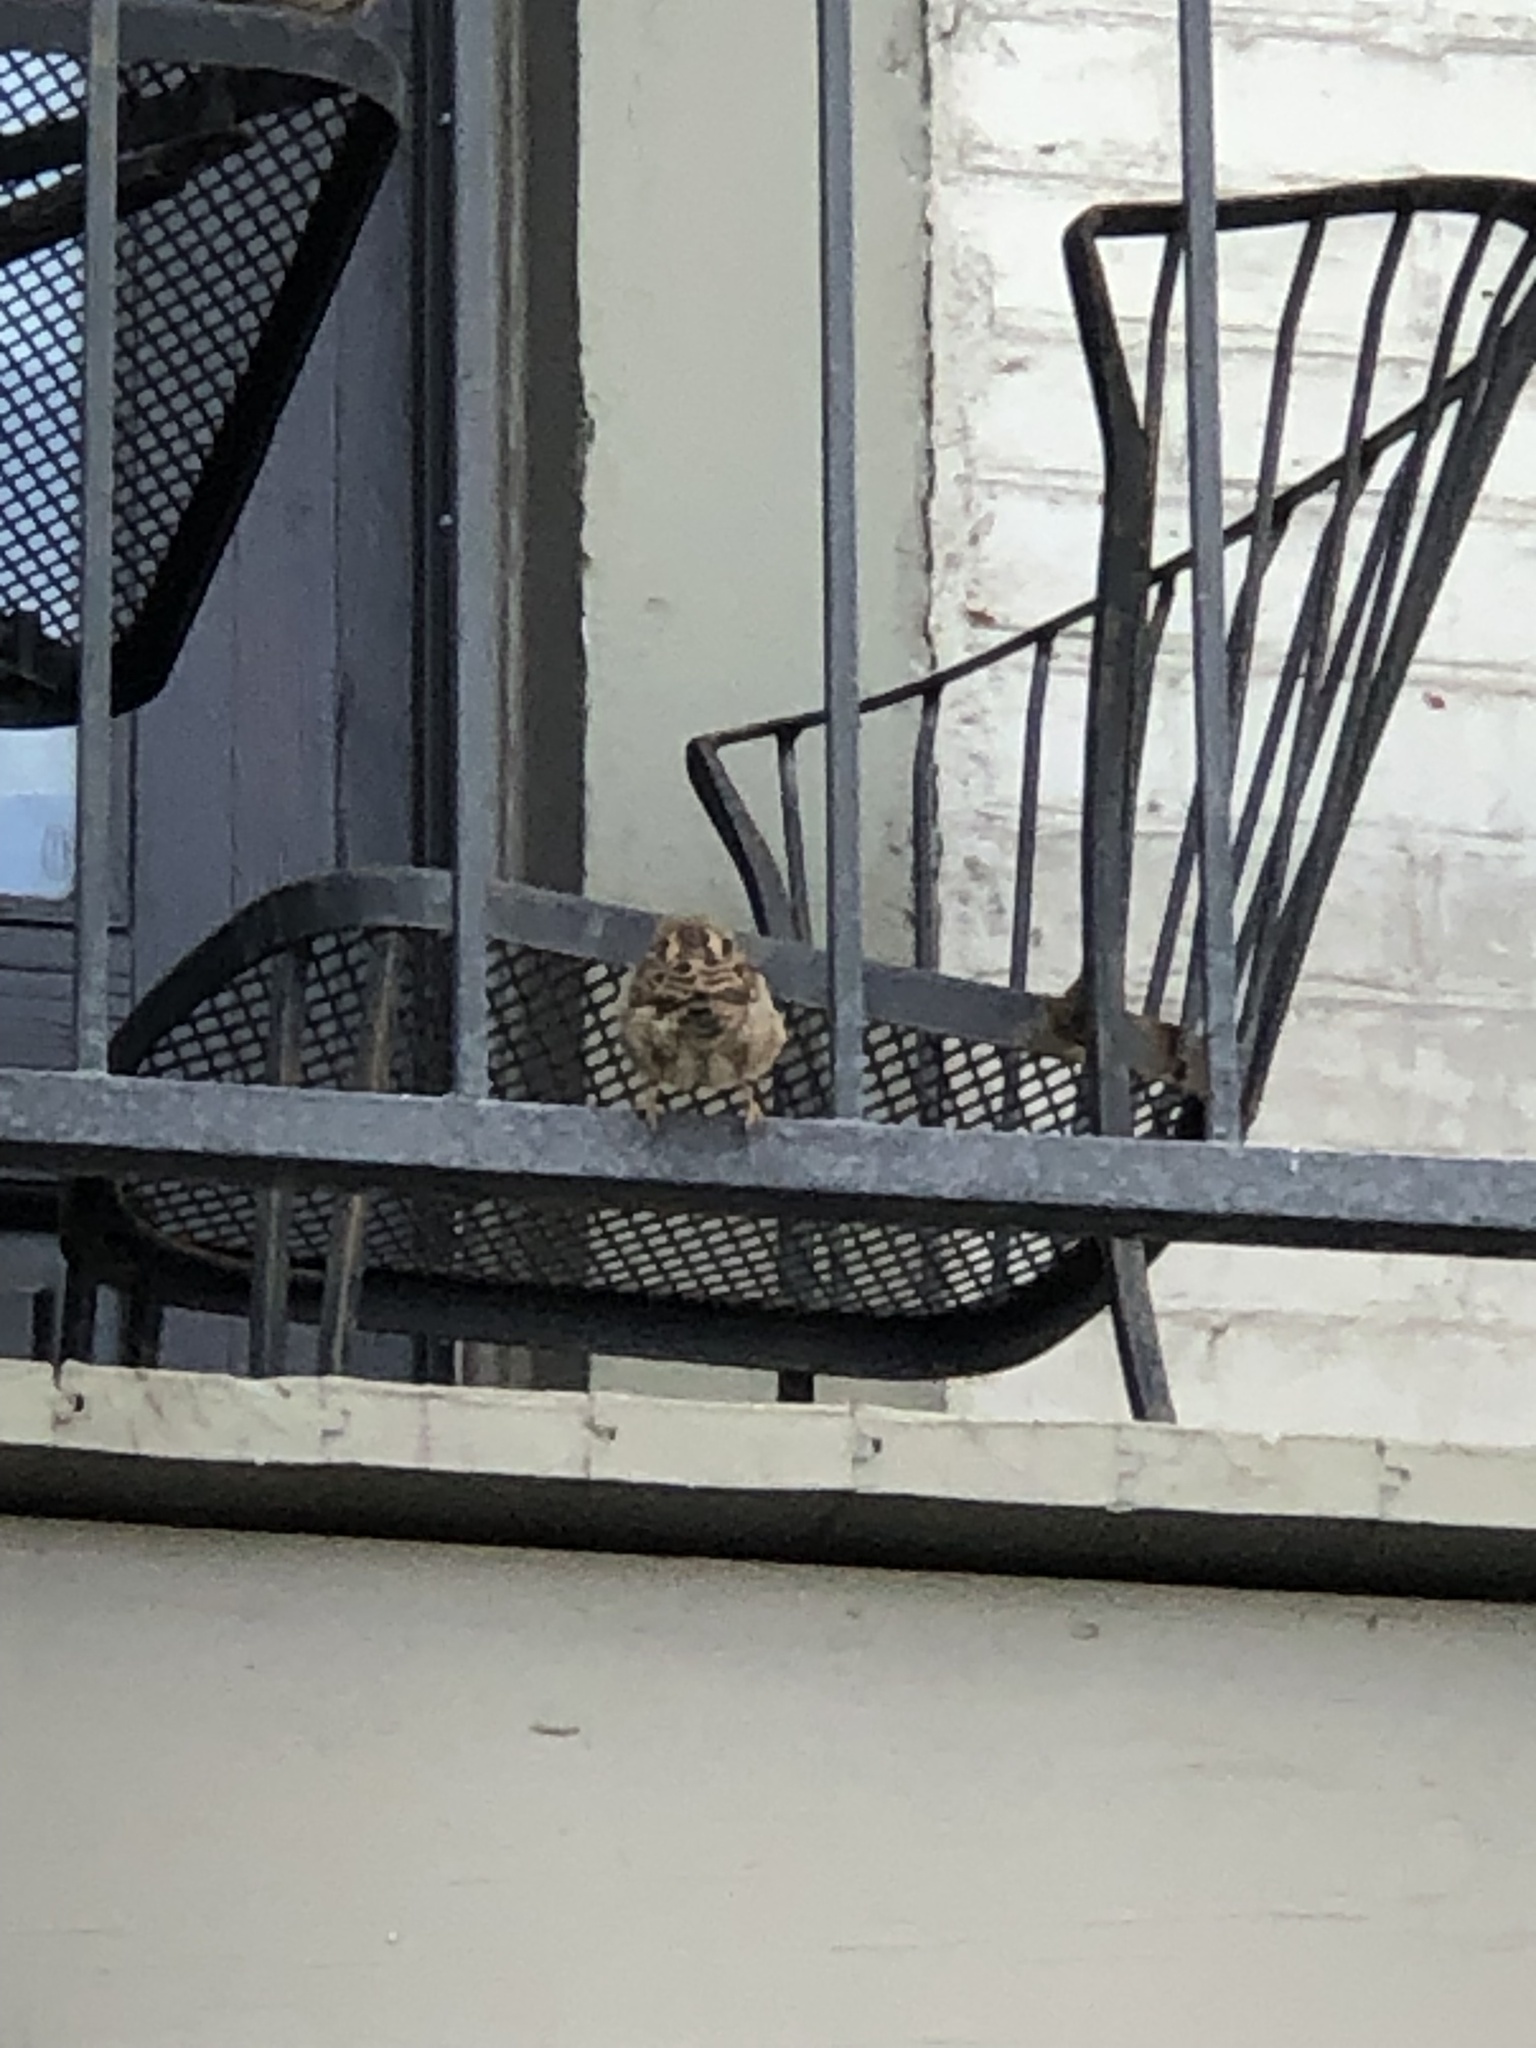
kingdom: Animalia
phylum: Chordata
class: Aves
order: Passeriformes
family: Passeridae
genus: Passer
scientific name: Passer domesticus
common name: House sparrow
